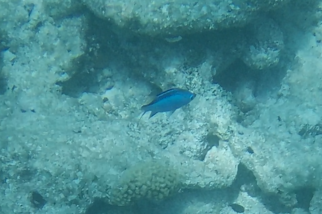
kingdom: Animalia
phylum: Chordata
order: Perciformes
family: Pomacentridae
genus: Chromis
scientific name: Chromis cyanea
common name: Blue chromis
